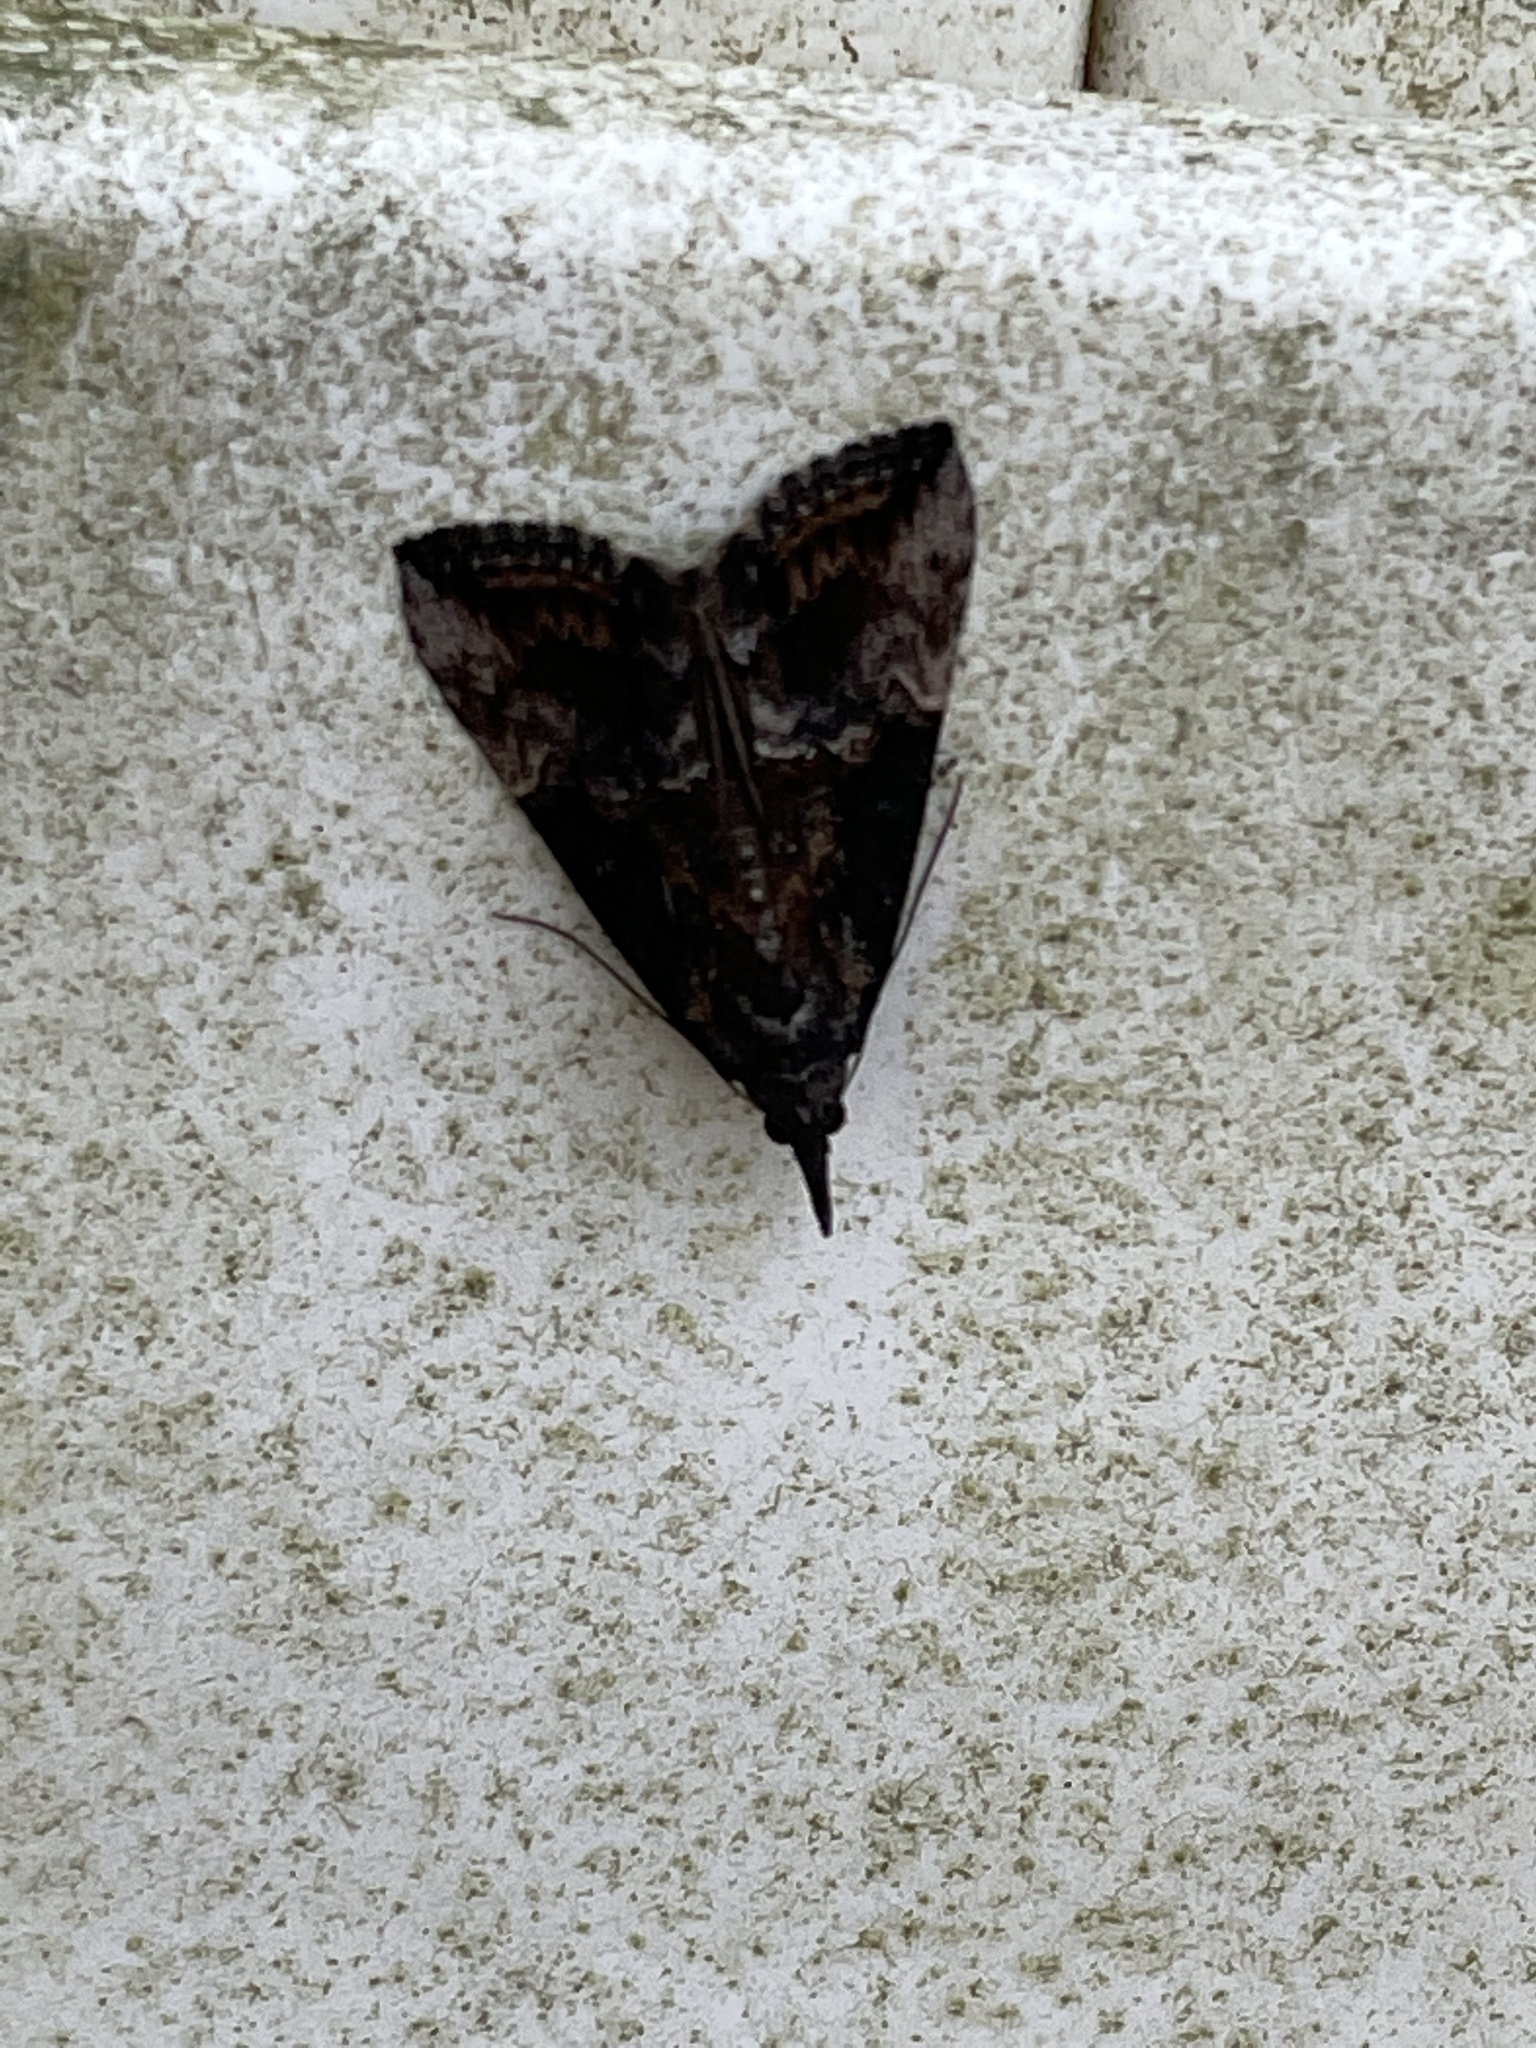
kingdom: Animalia
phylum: Arthropoda
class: Insecta
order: Lepidoptera
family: Erebidae
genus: Hypena
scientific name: Hypena scabra
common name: Green cloverworm
